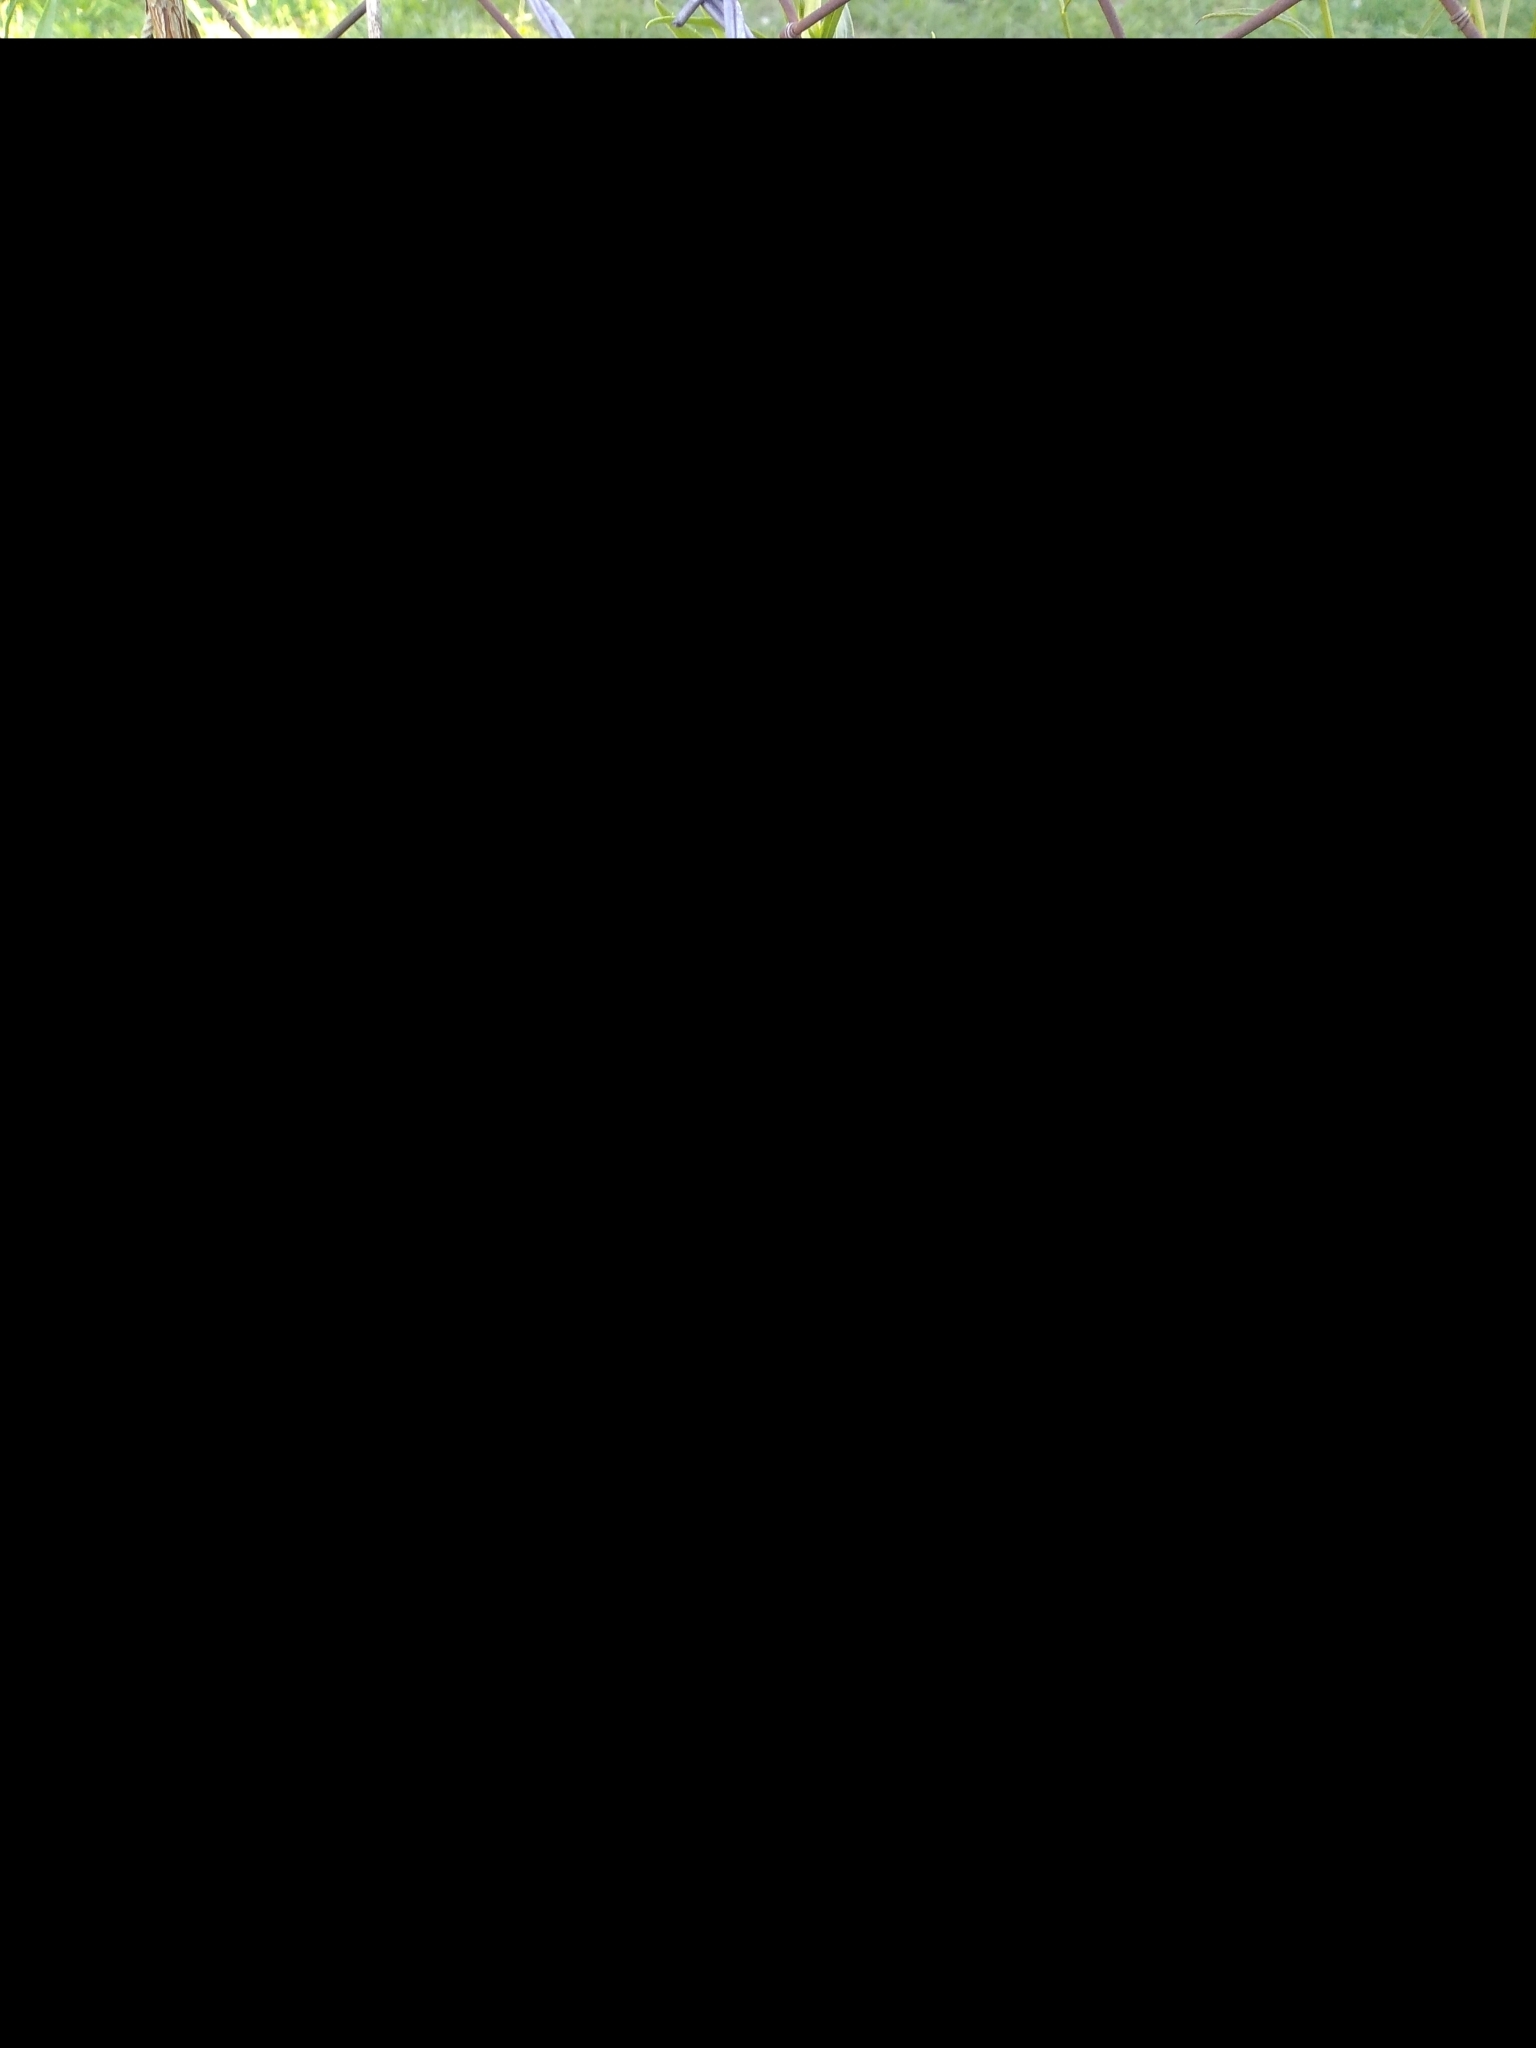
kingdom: Plantae
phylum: Tracheophyta
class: Magnoliopsida
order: Asterales
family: Asteraceae
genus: Solidago
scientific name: Solidago chilensis
